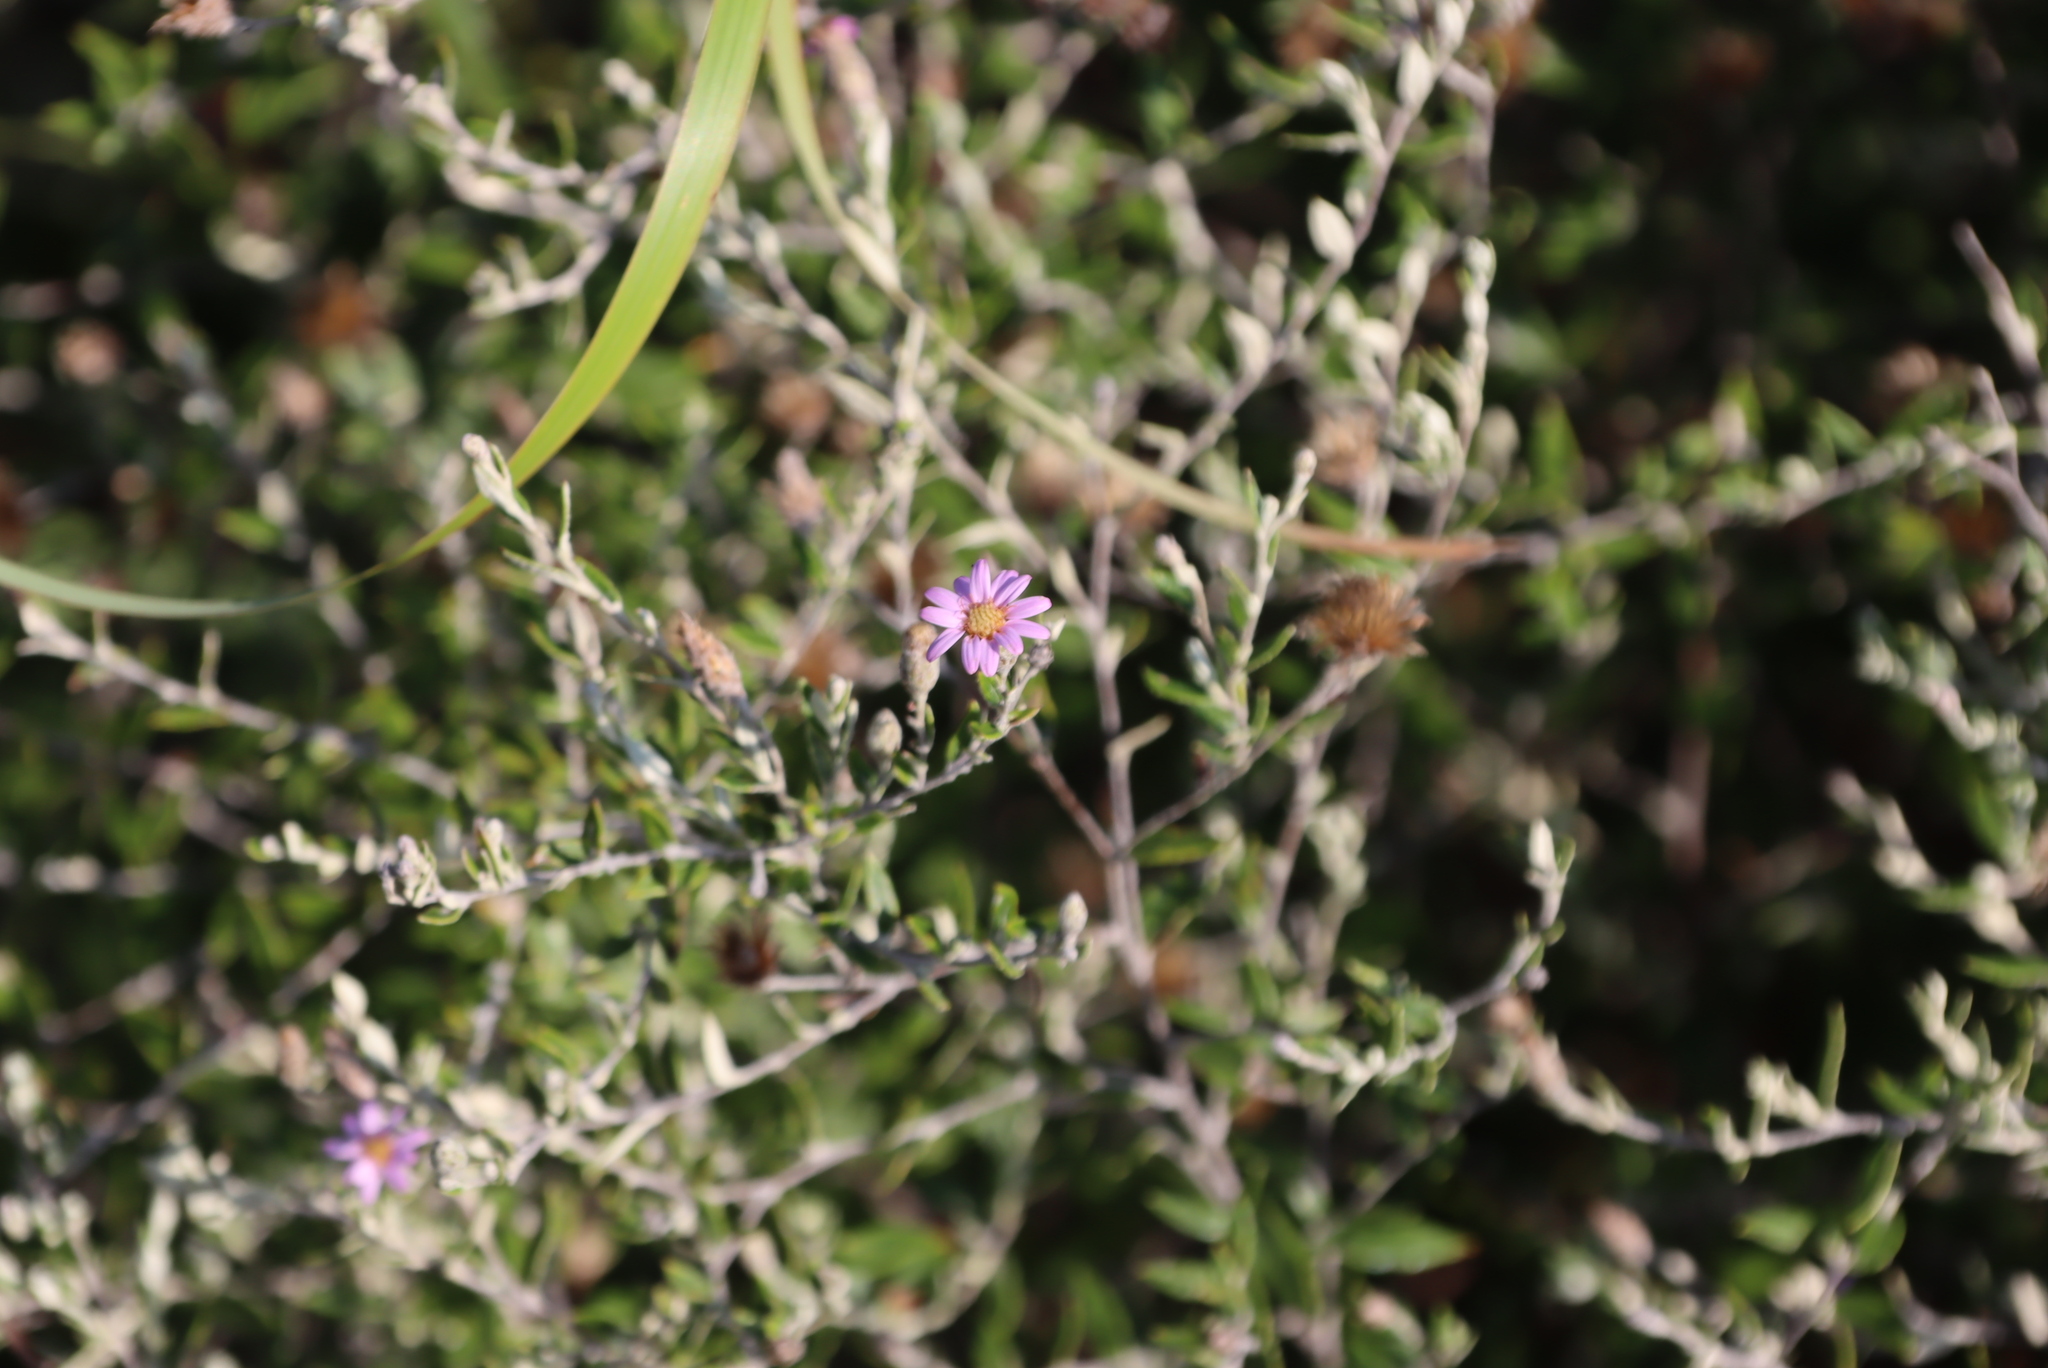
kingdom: Plantae
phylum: Tracheophyta
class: Magnoliopsida
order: Asterales
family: Asteraceae
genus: Athrixia
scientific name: Athrixia phylicoides
